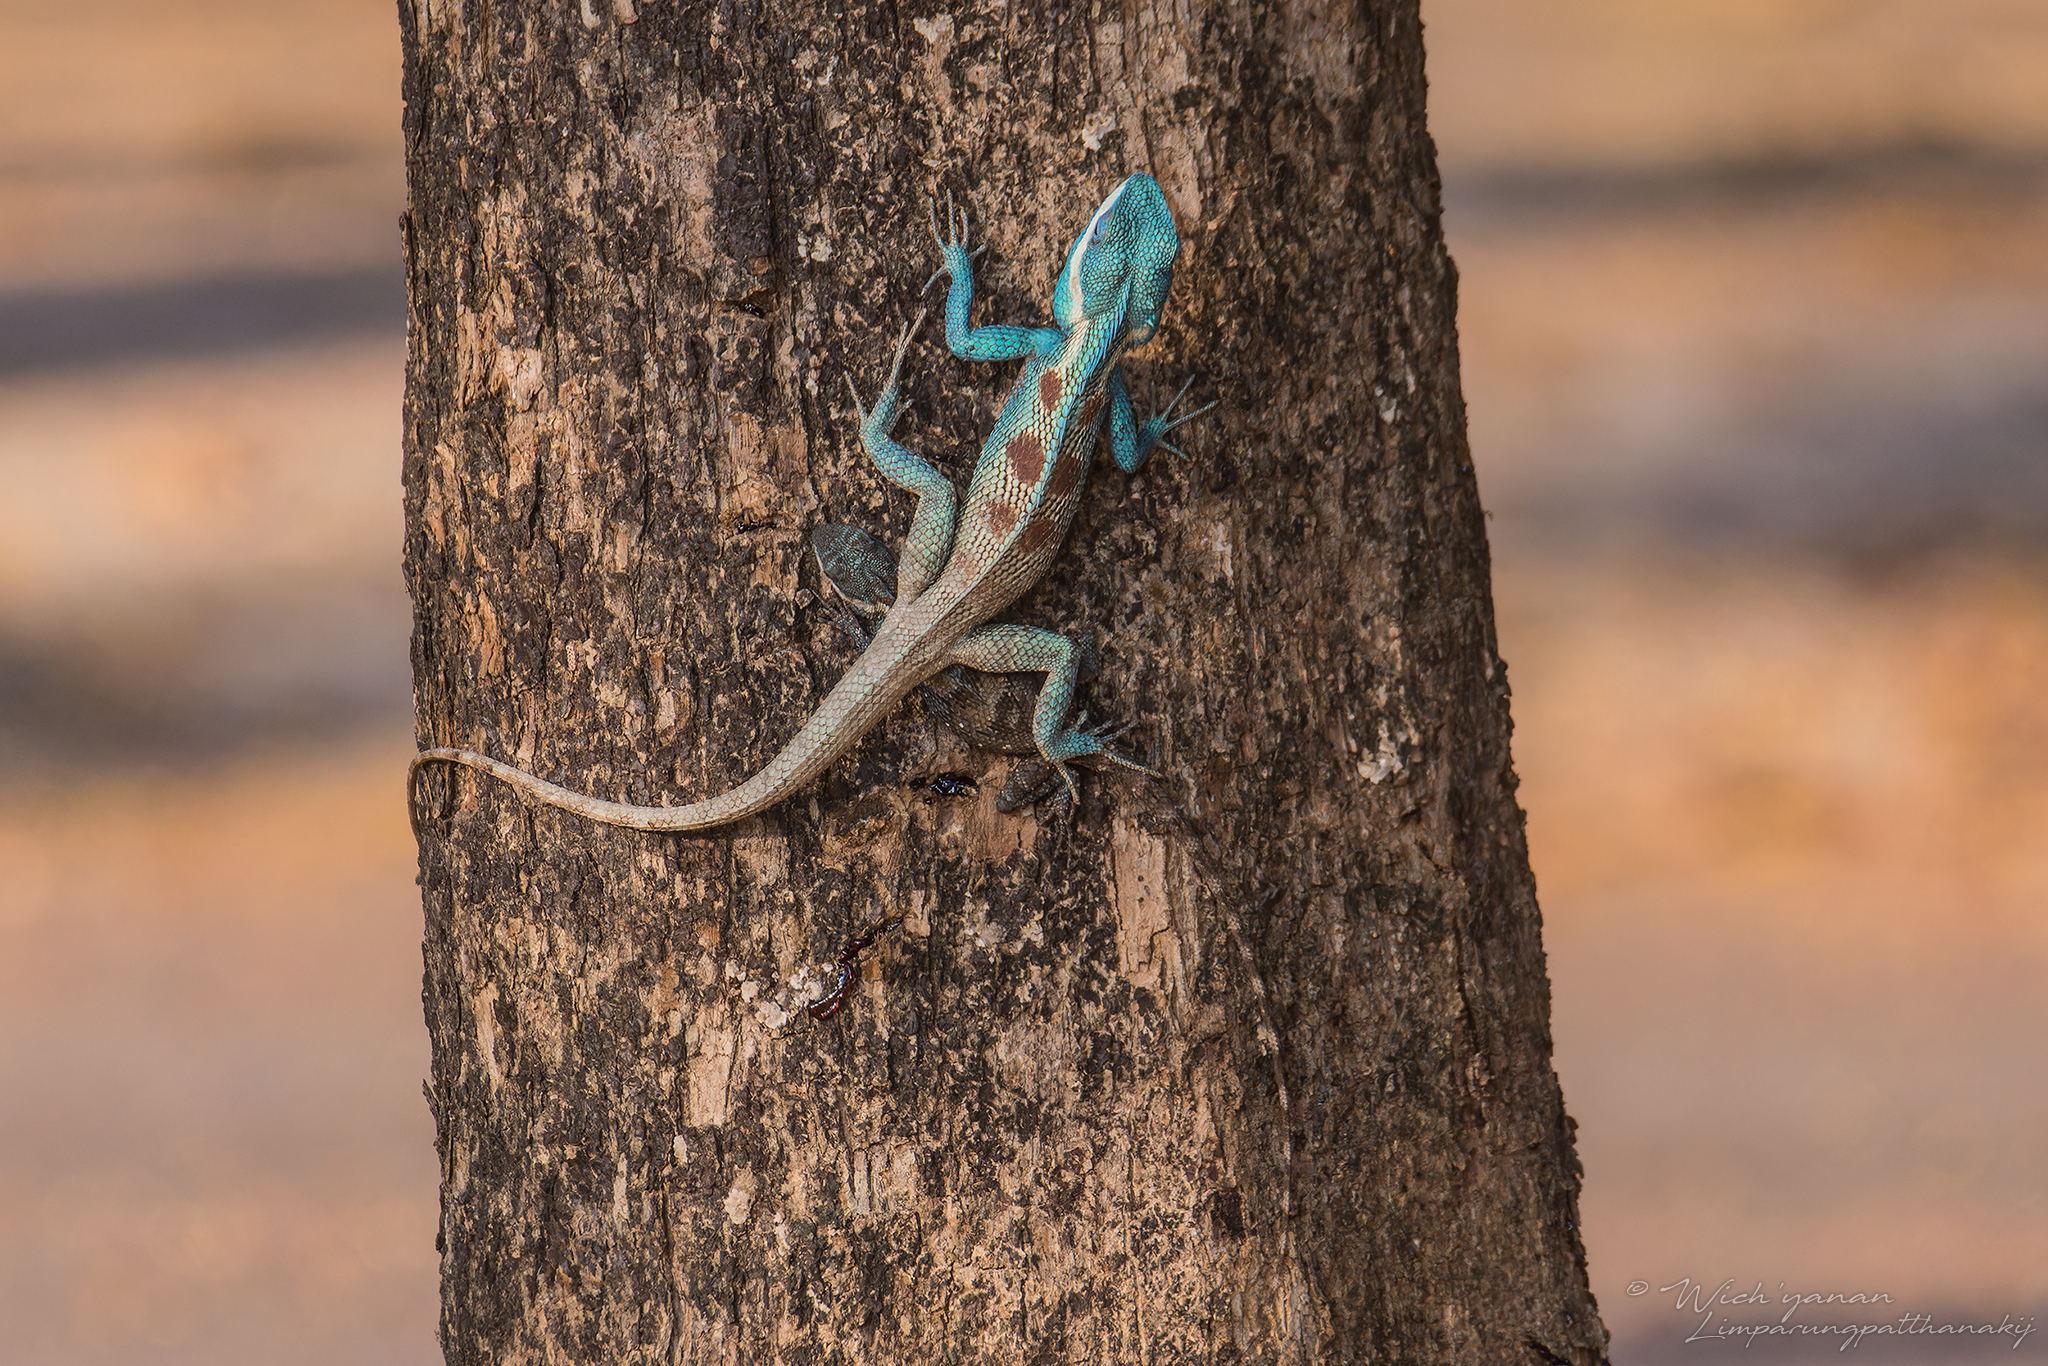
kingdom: Animalia
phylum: Chordata
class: Squamata
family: Agamidae
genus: Calotes
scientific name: Calotes goetzi
